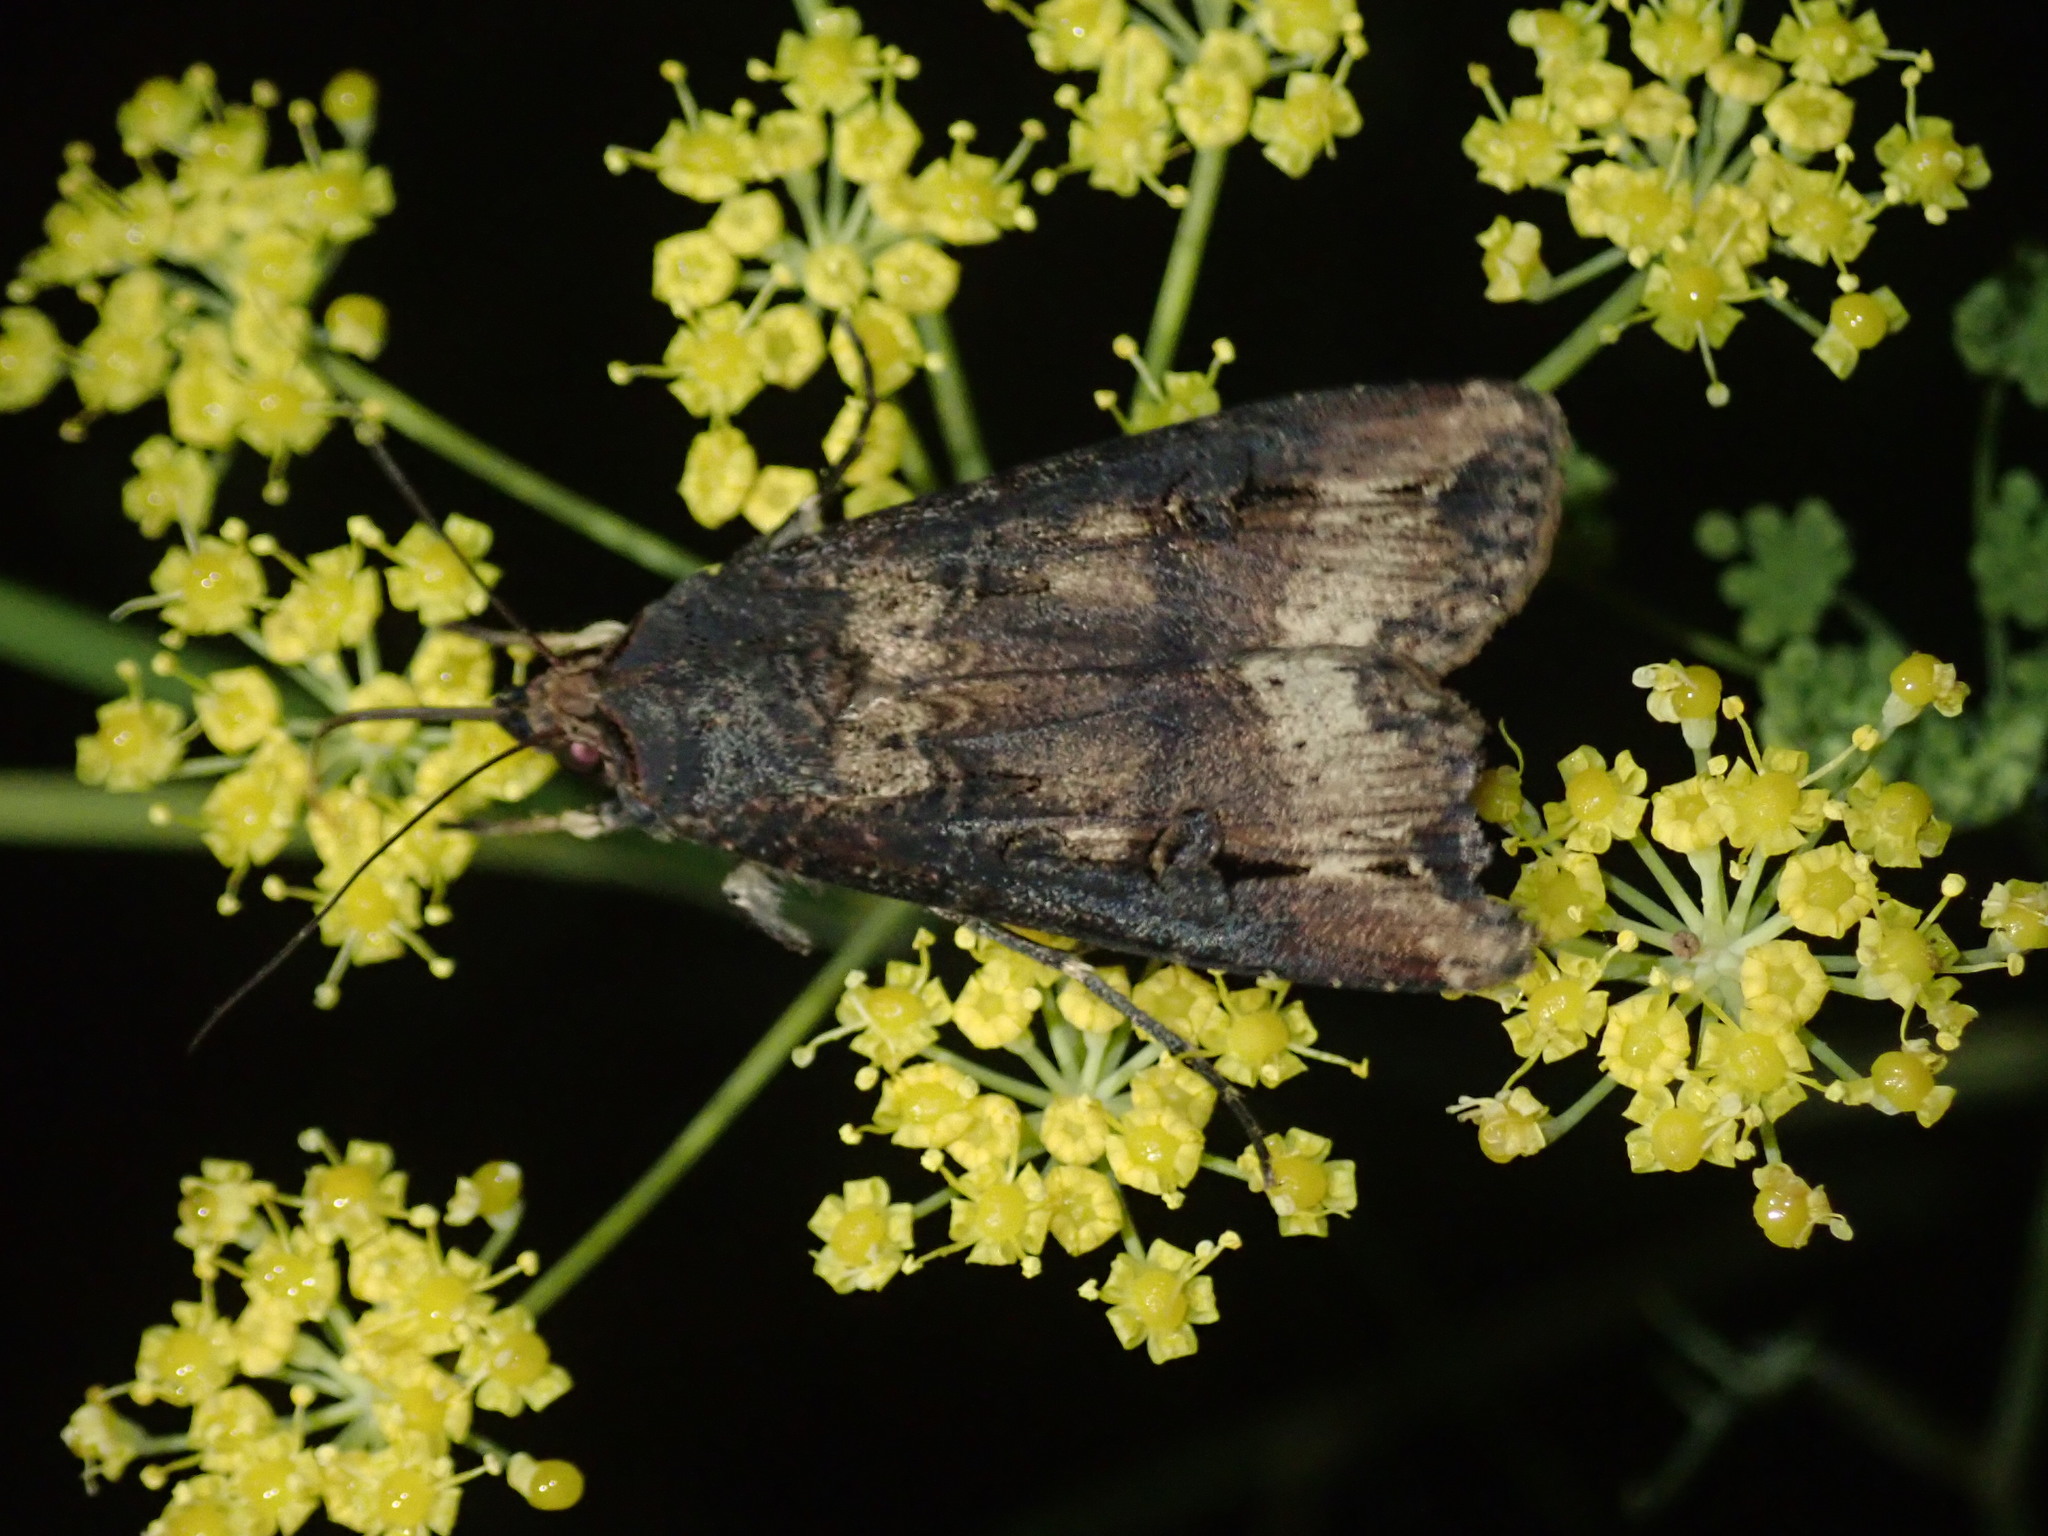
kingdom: Animalia
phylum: Arthropoda
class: Insecta
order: Lepidoptera
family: Noctuidae
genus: Agrotis
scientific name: Agrotis ipsilon
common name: Dark sword-grass
